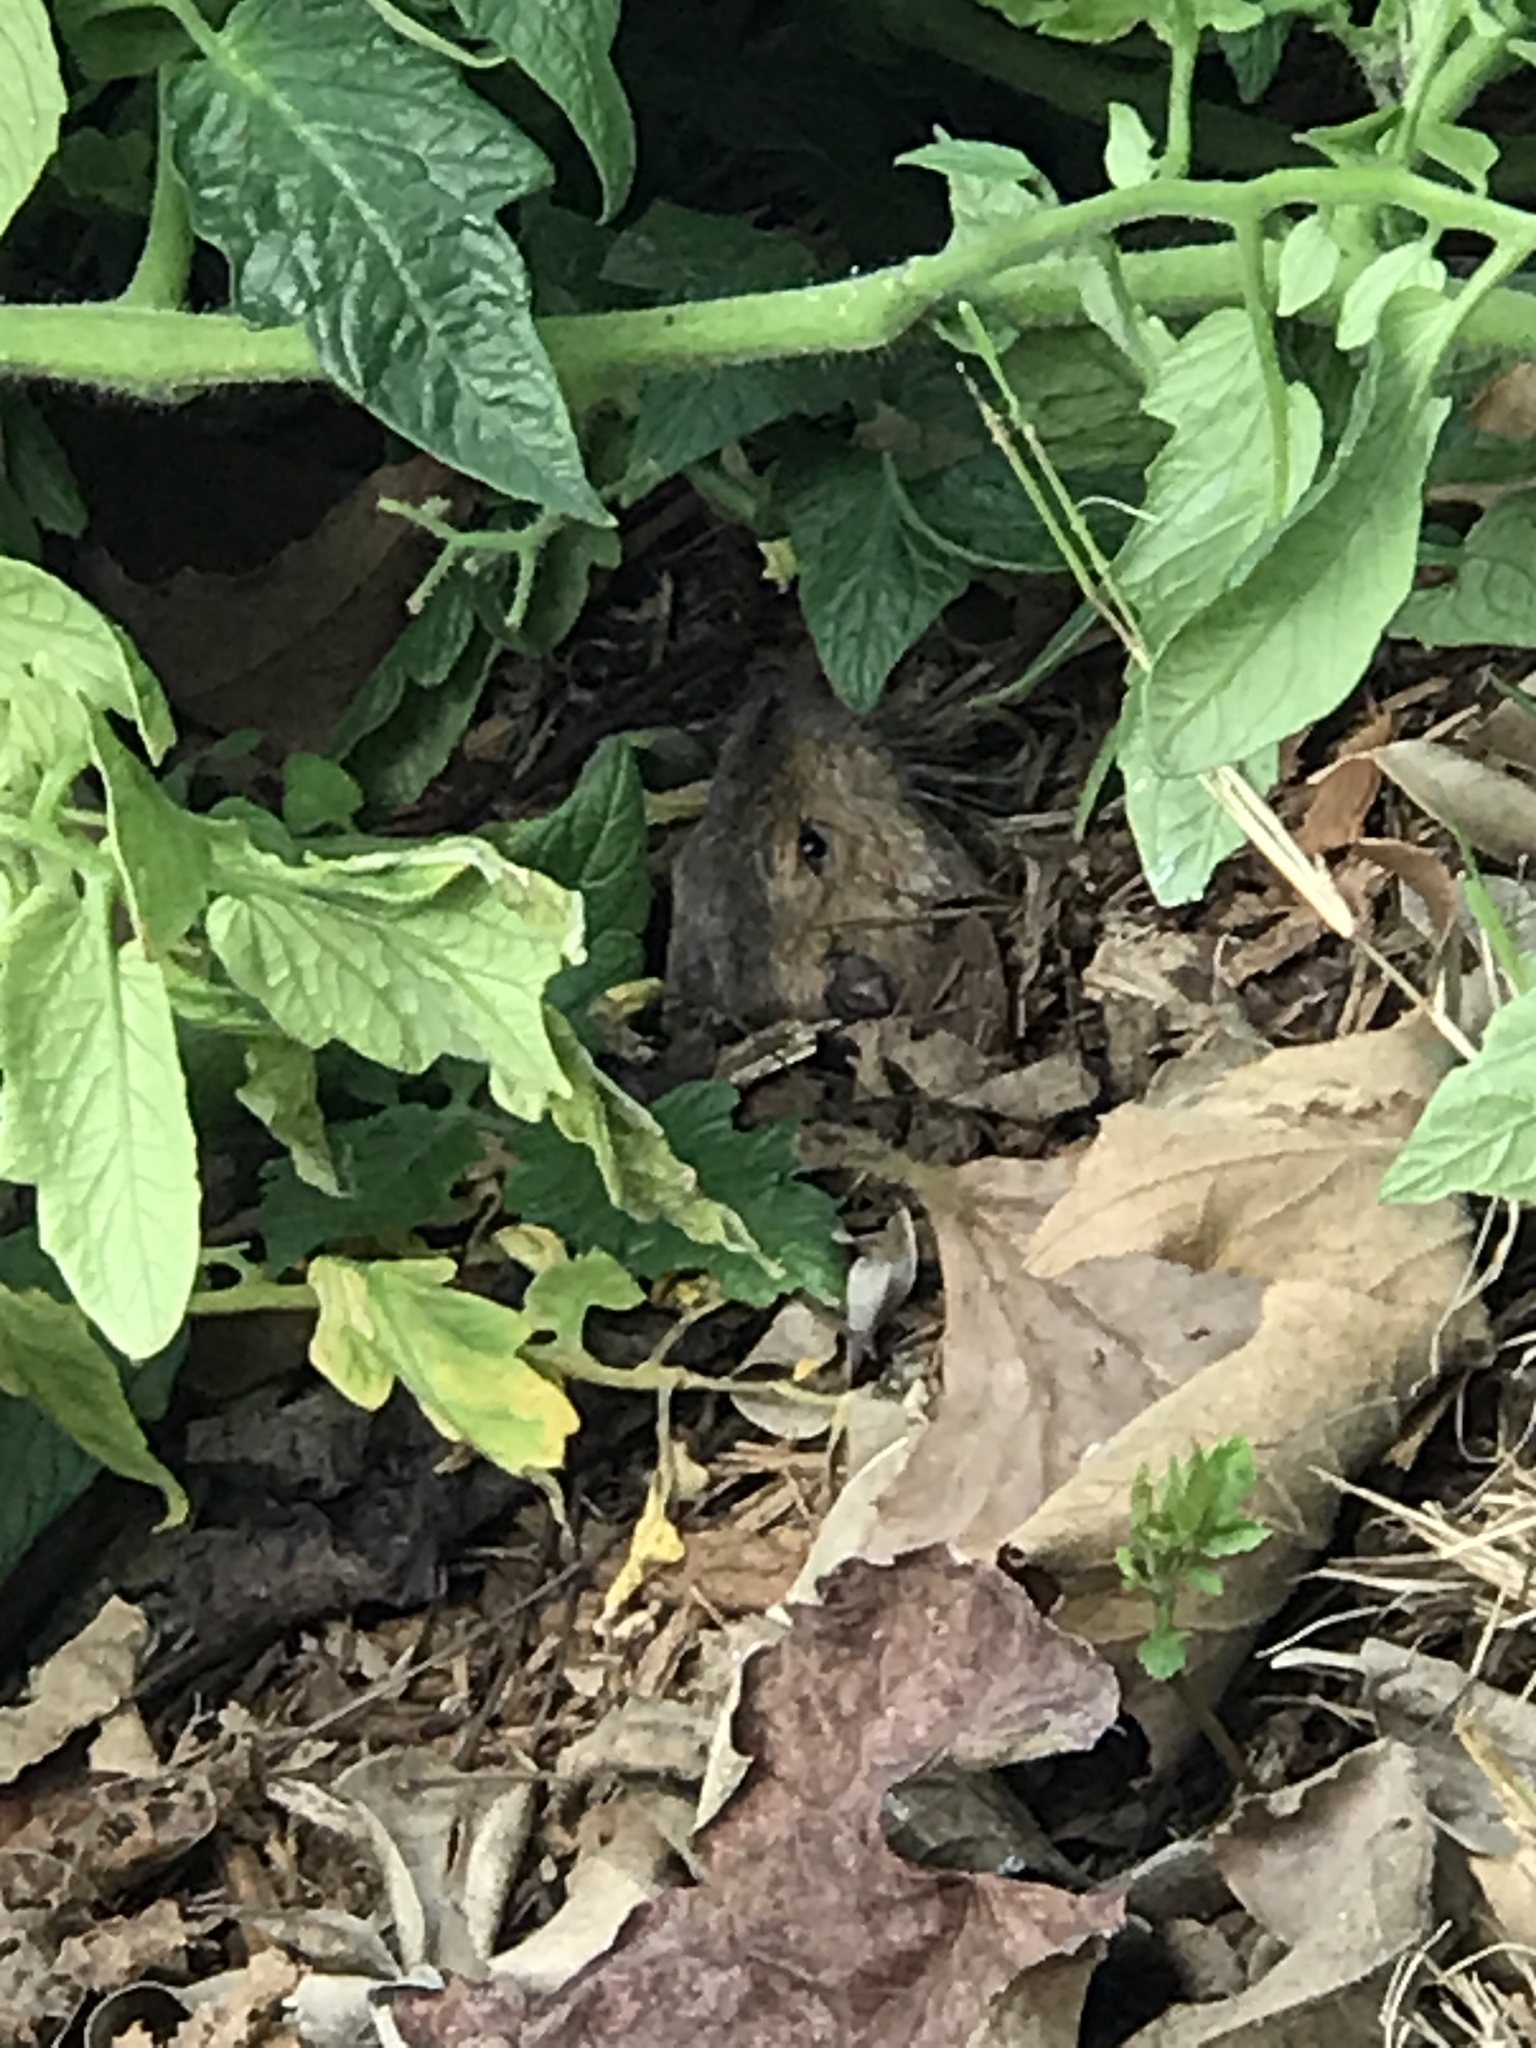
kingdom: Animalia
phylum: Chordata
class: Mammalia
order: Rodentia
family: Geomyidae
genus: Thomomys
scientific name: Thomomys bottae
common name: Botta's pocket gopher
